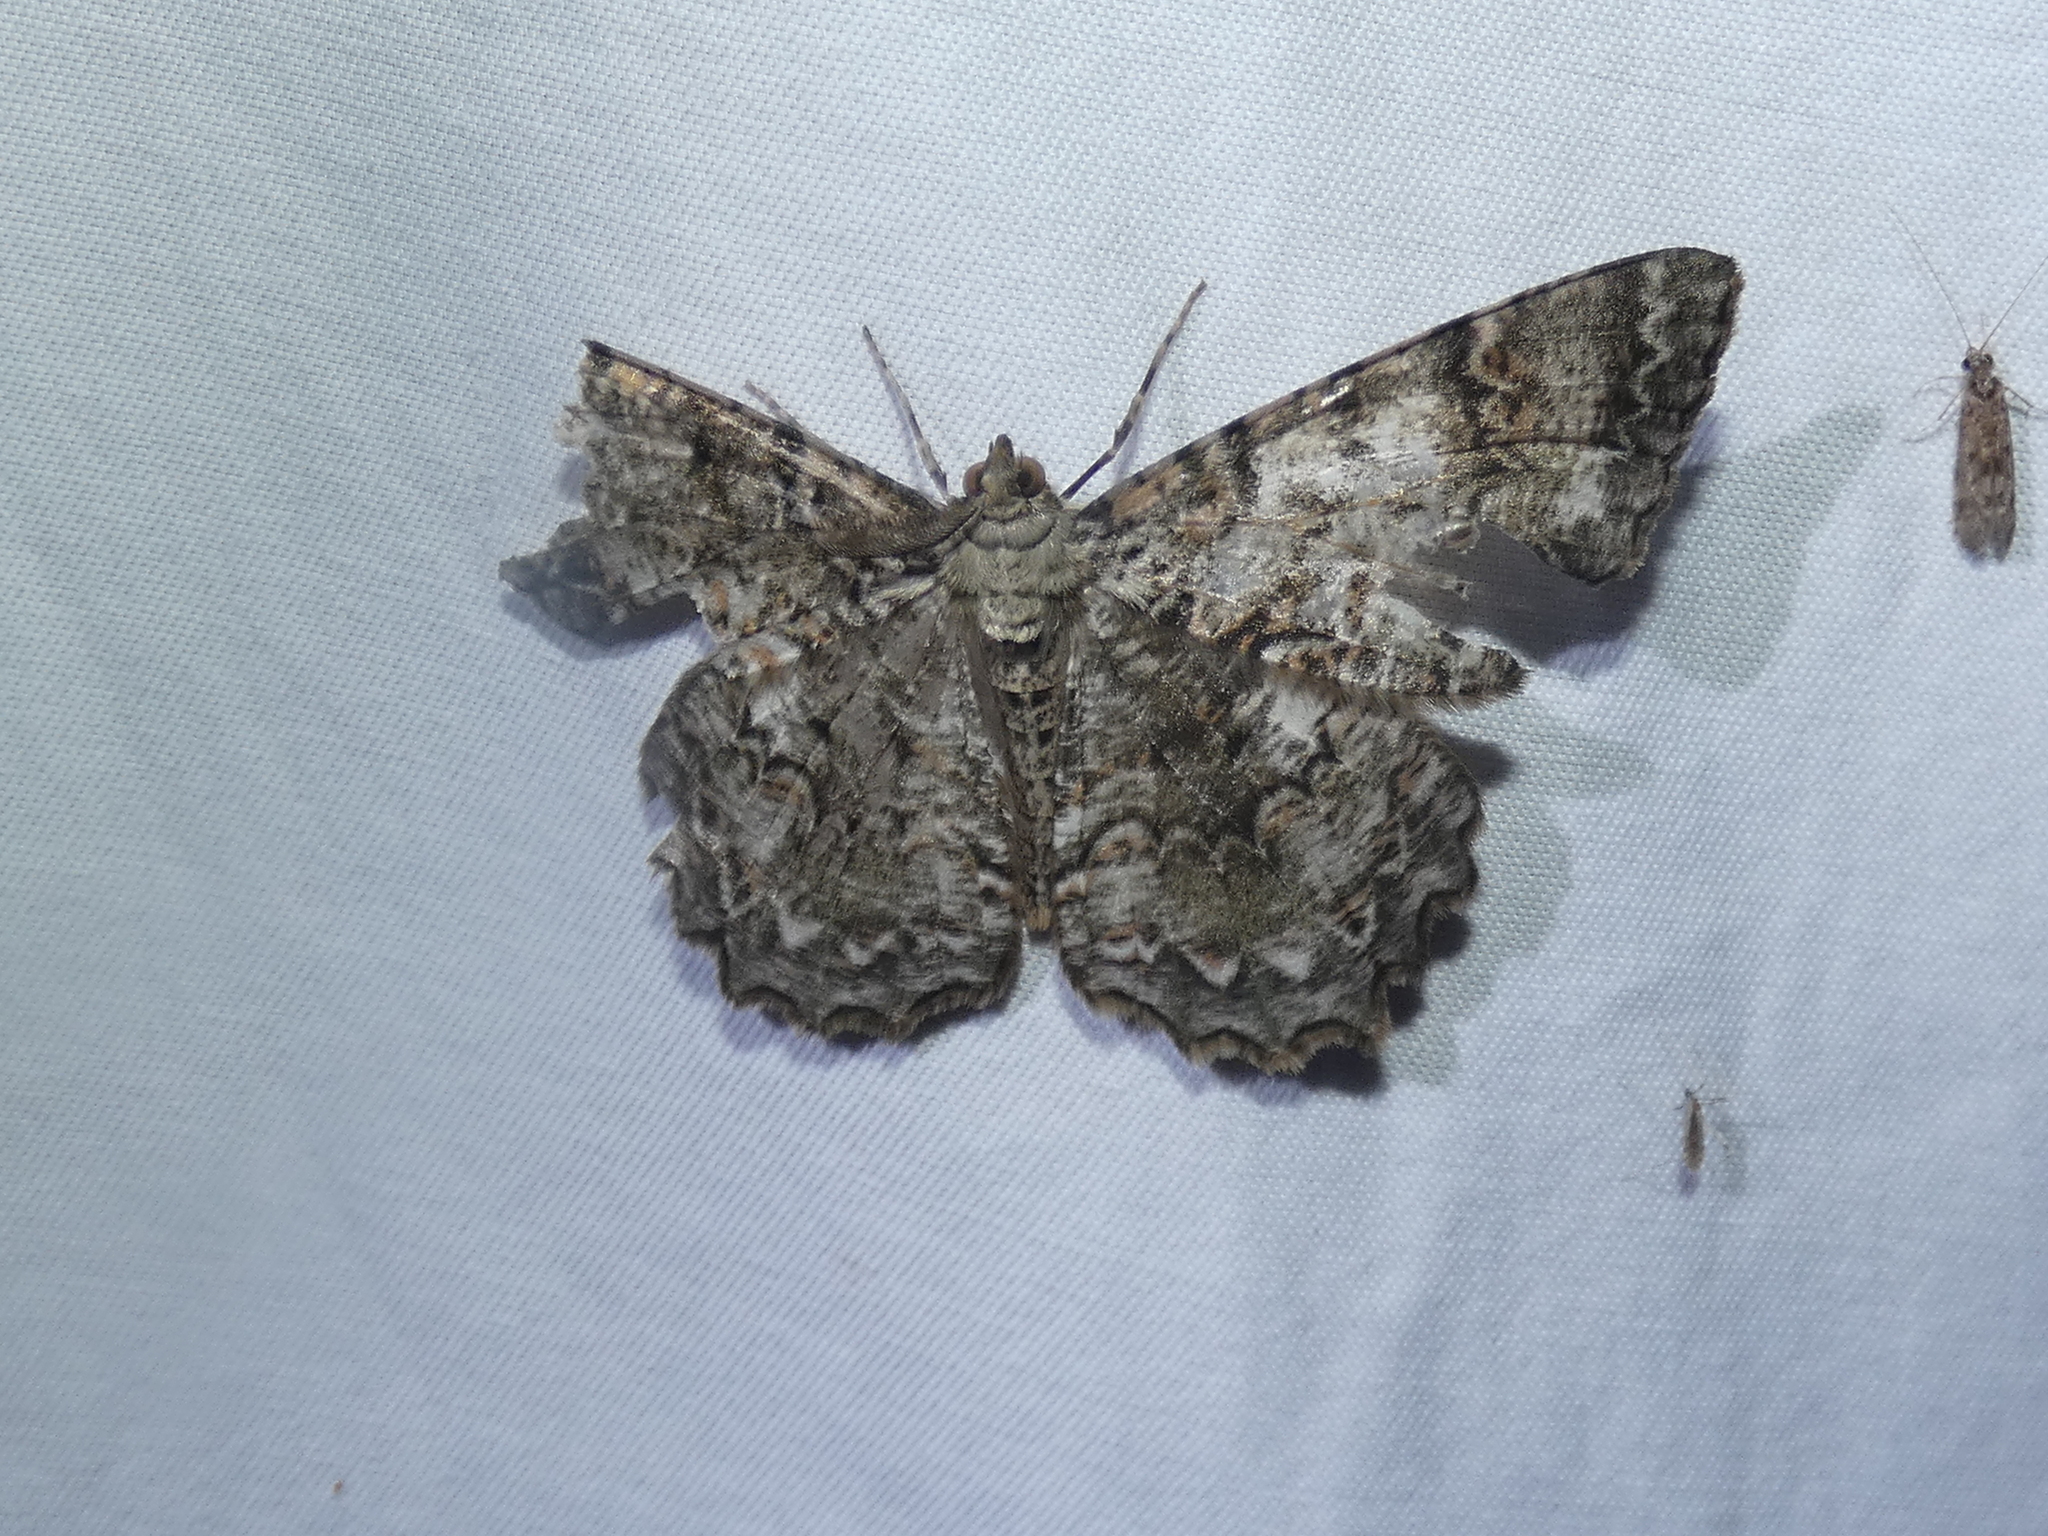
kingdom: Animalia
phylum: Arthropoda
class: Insecta
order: Lepidoptera
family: Geometridae
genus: Epimecis
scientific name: Epimecis hortaria
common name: Tulip-tree beauty
